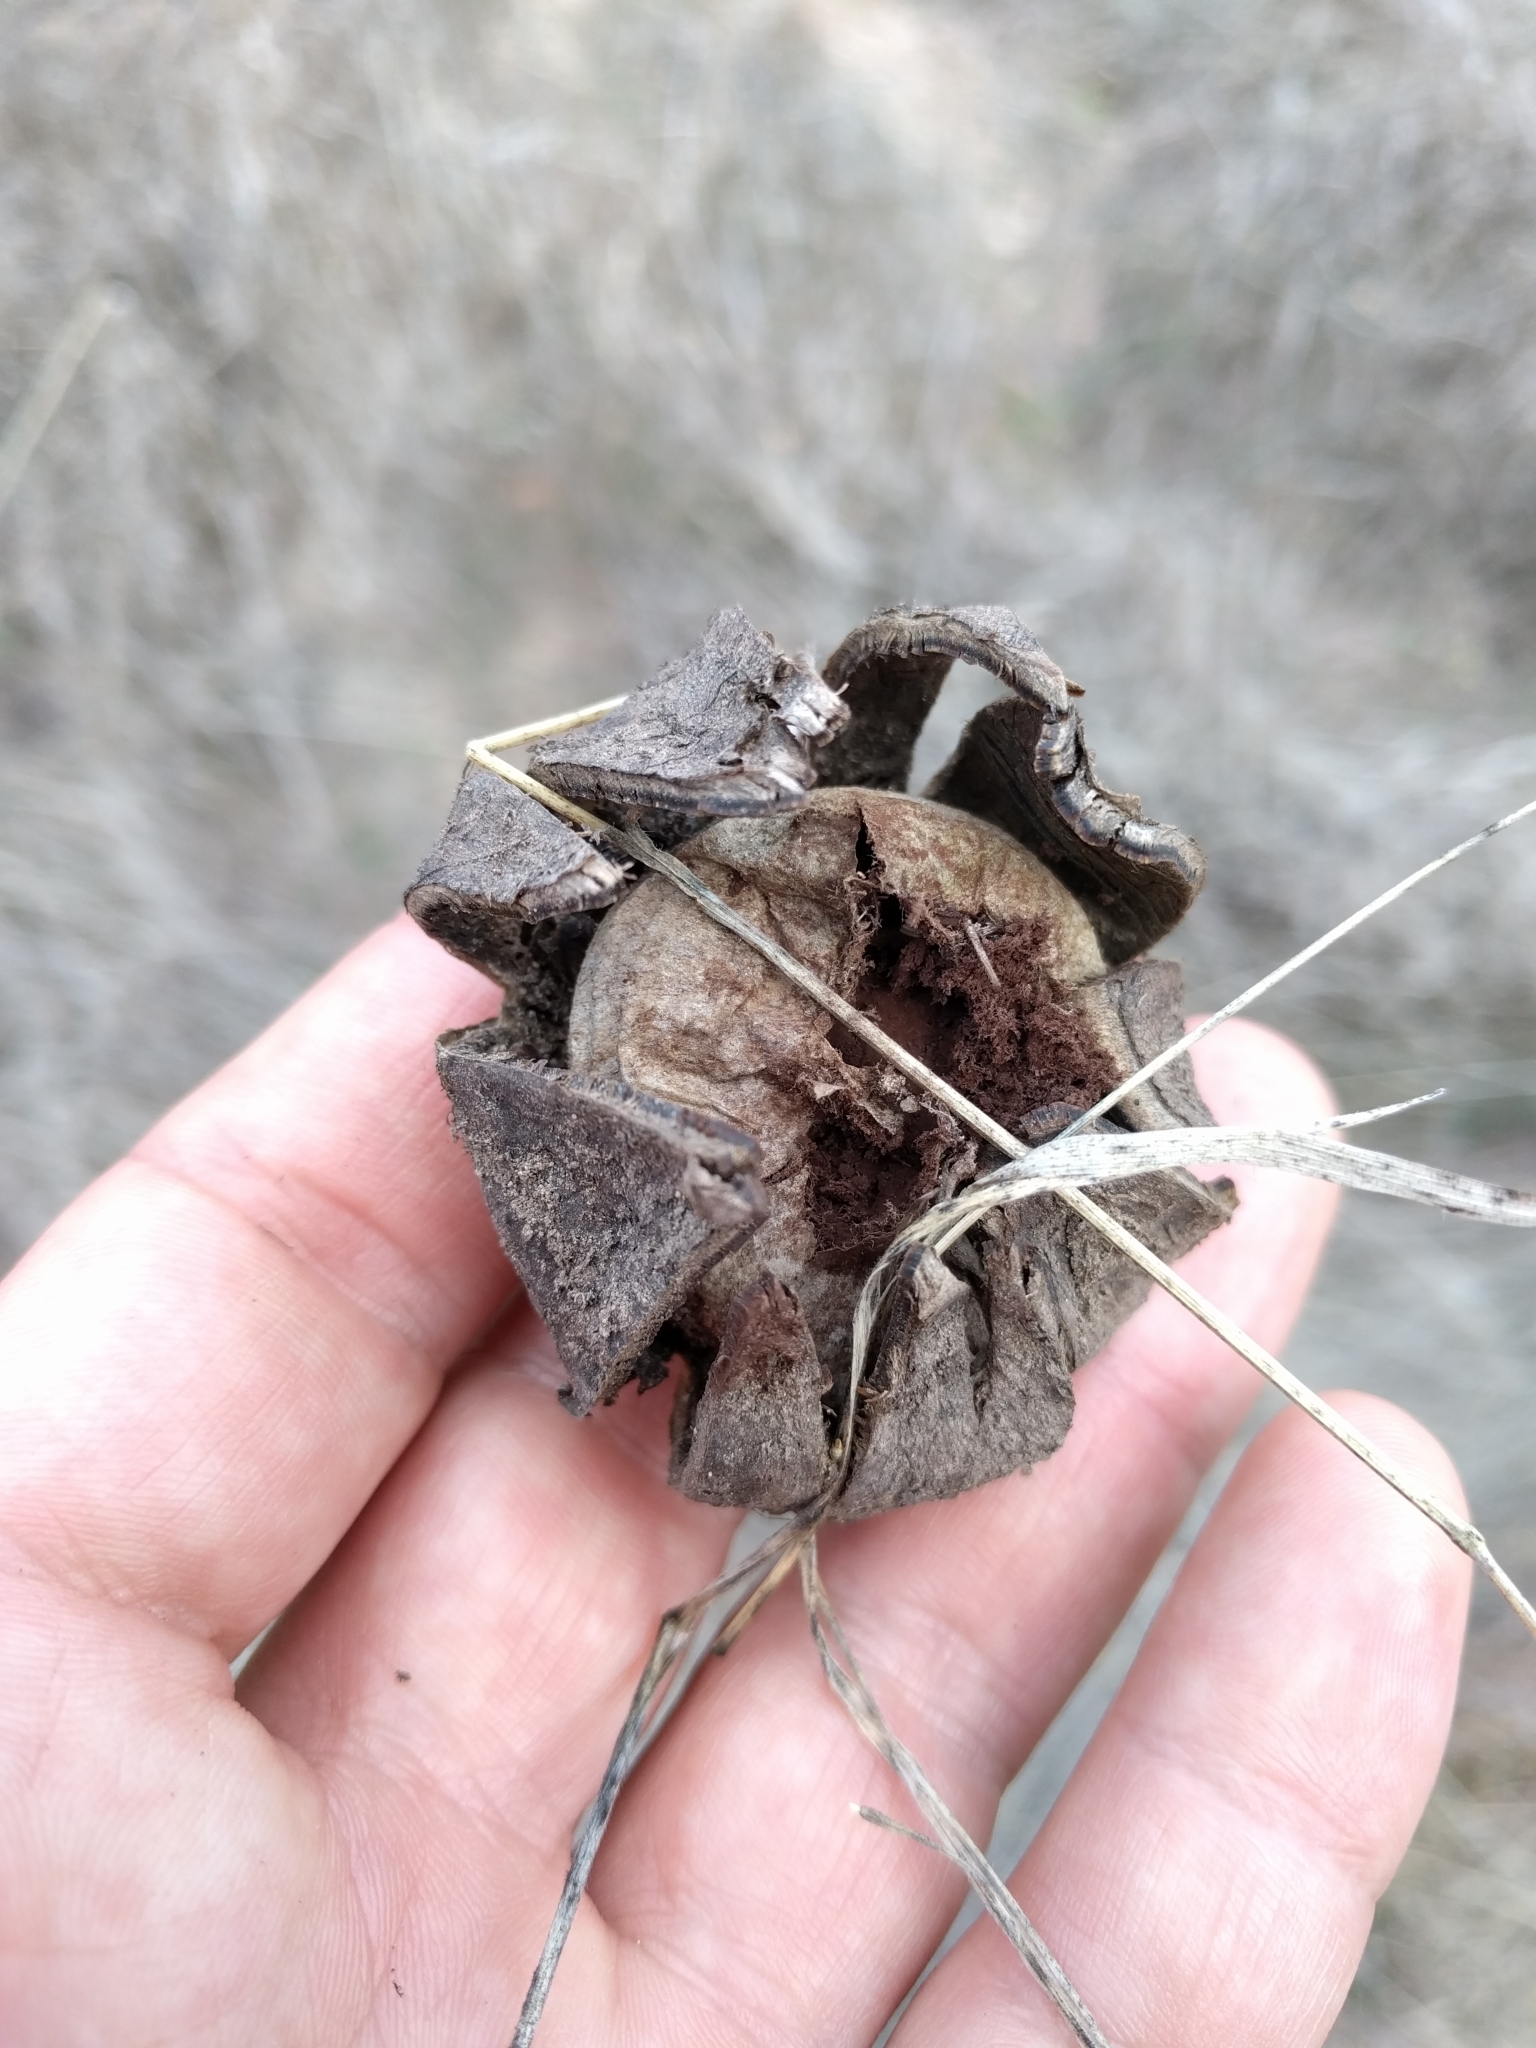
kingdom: Fungi
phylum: Basidiomycota
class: Agaricomycetes
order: Boletales
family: Diplocystidiaceae
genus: Astraeus
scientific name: Astraeus hygrometricus
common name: Barometer earthstar
